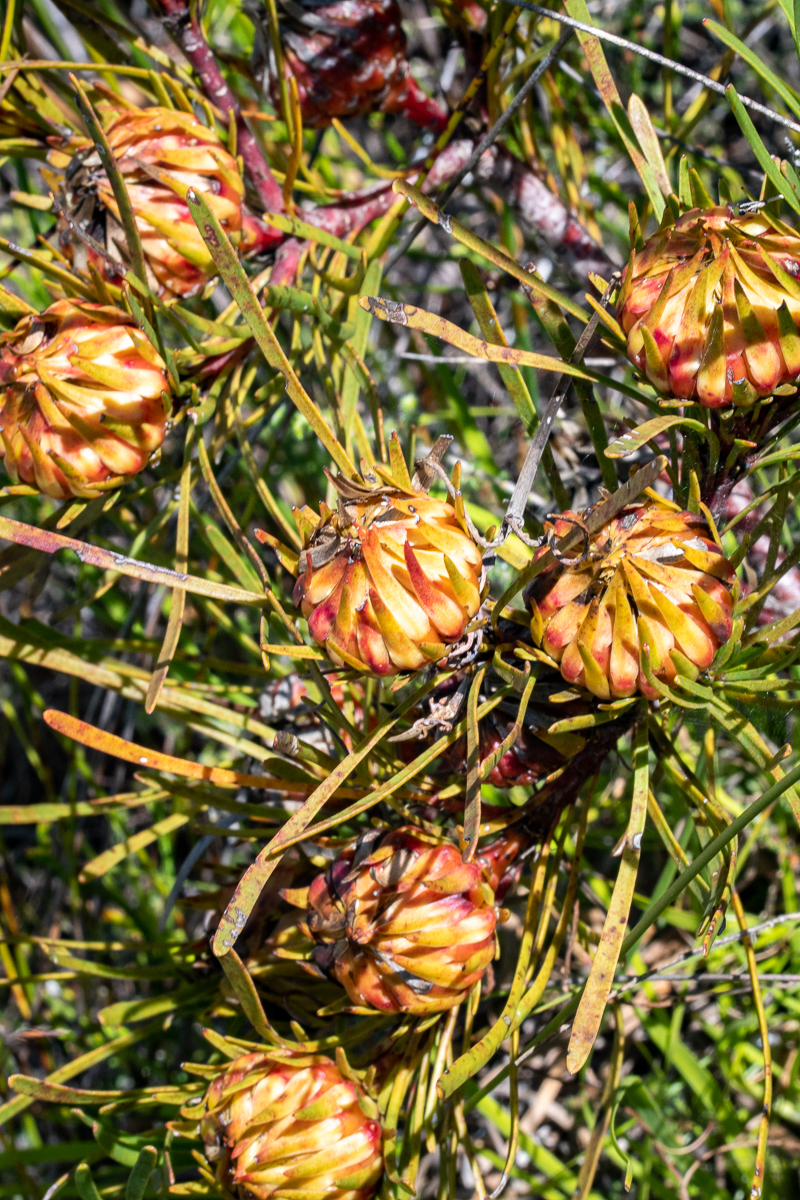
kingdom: Plantae
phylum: Tracheophyta
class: Magnoliopsida
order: Proteales
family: Proteaceae
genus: Aulax
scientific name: Aulax
